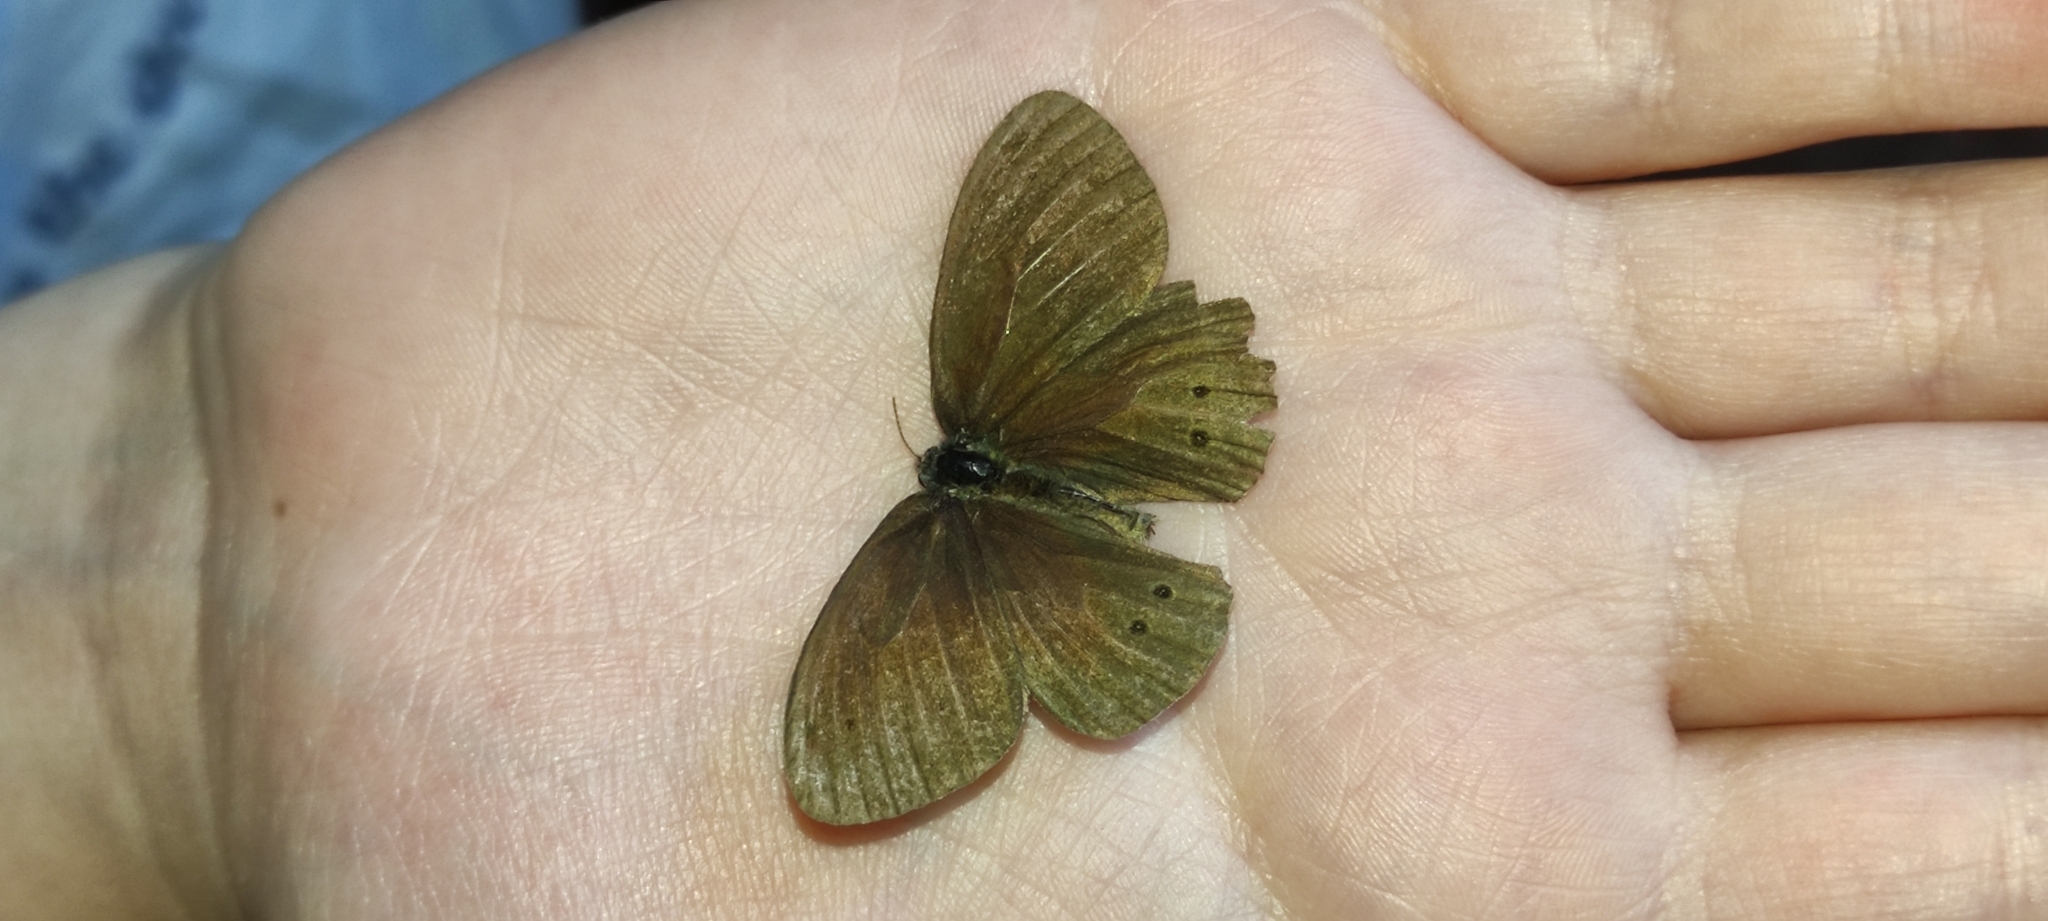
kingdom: Animalia
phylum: Arthropoda
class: Insecta
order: Lepidoptera
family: Nymphalidae
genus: Aphantopus
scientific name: Aphantopus hyperantus
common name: Ringlet
